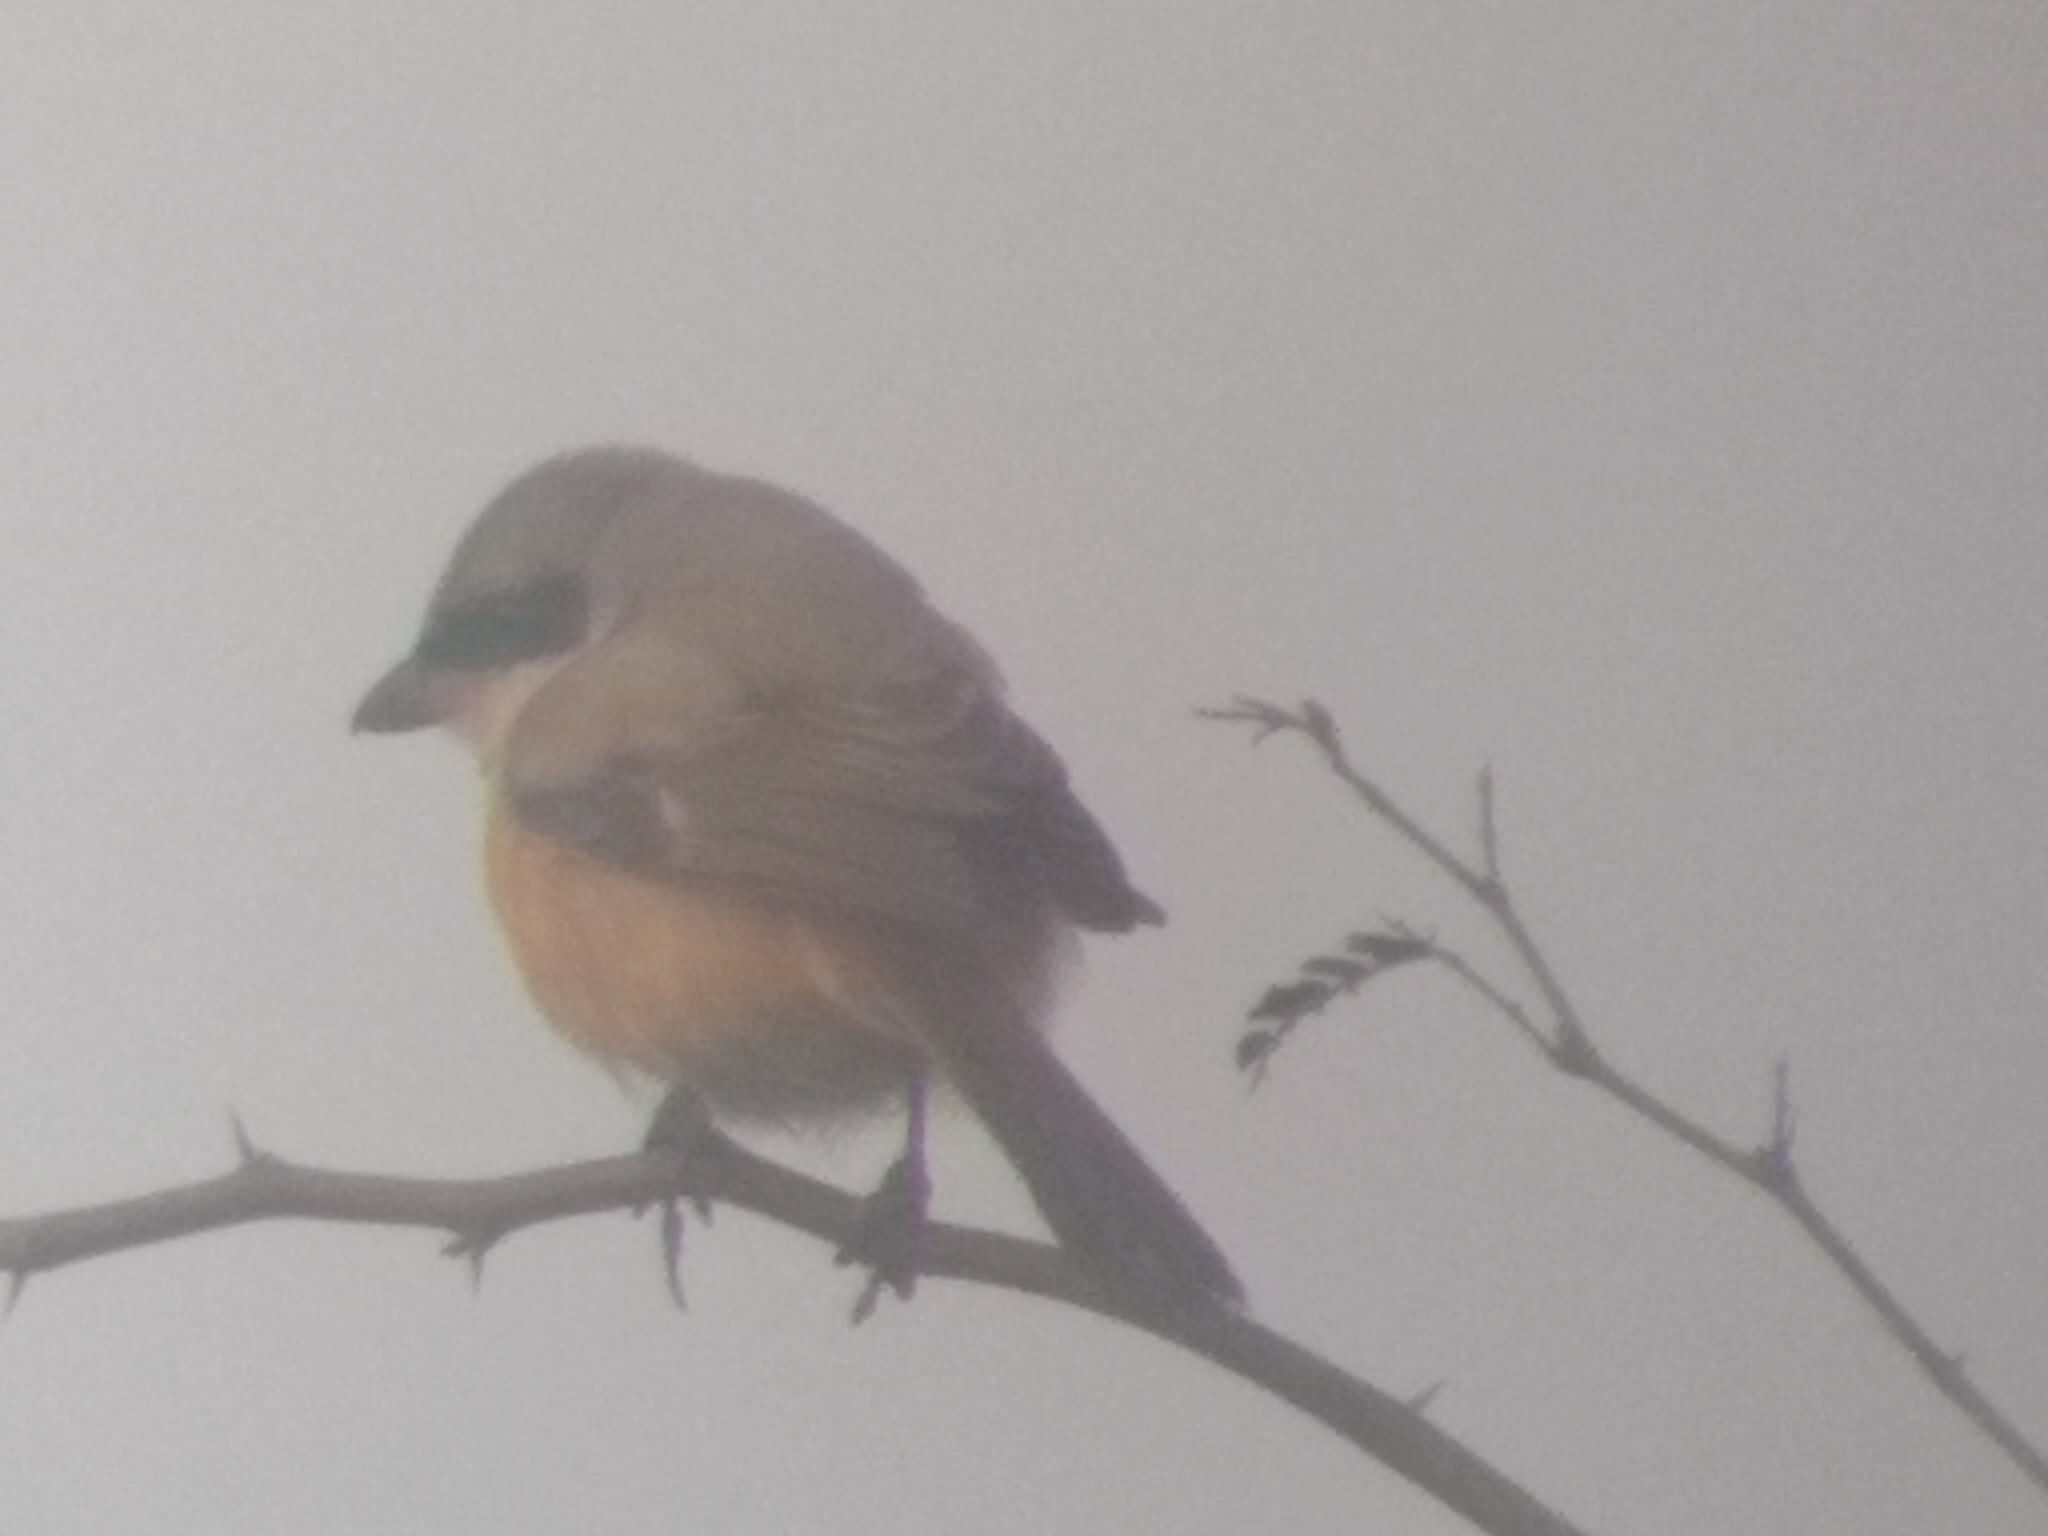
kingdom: Animalia
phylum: Chordata
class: Aves
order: Passeriformes
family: Laniidae
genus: Lanius
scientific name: Lanius schach
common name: Long-tailed shrike
